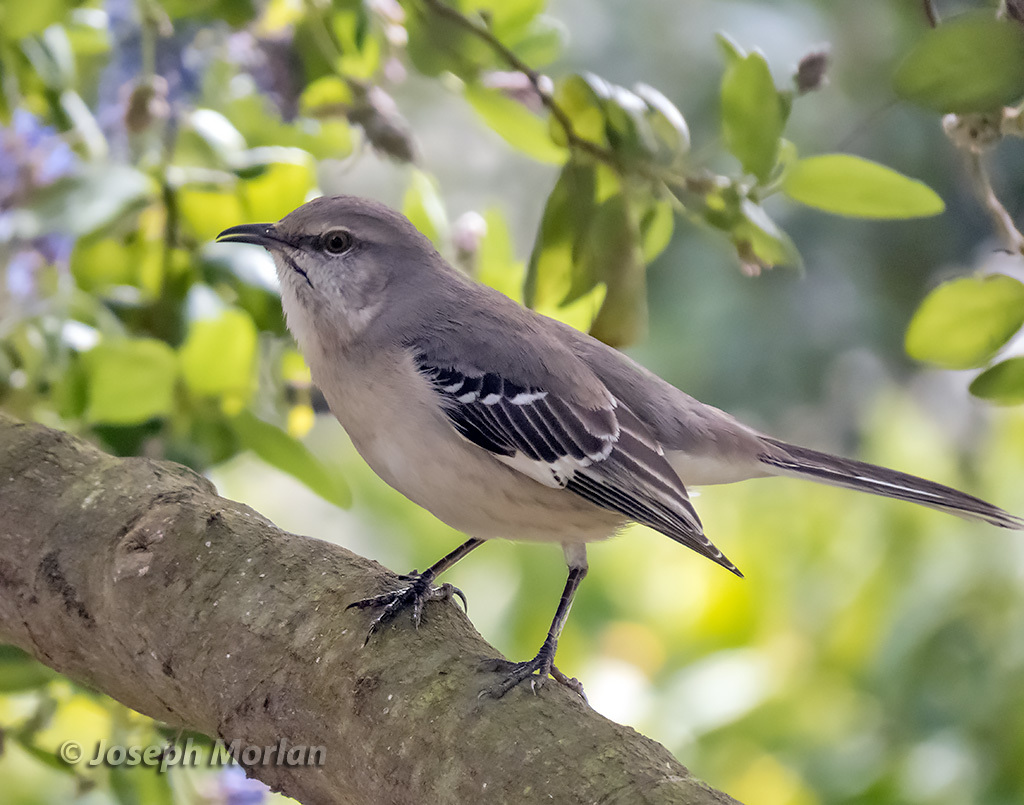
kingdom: Animalia
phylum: Chordata
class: Aves
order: Passeriformes
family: Mimidae
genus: Mimus
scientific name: Mimus polyglottos
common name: Northern mockingbird
